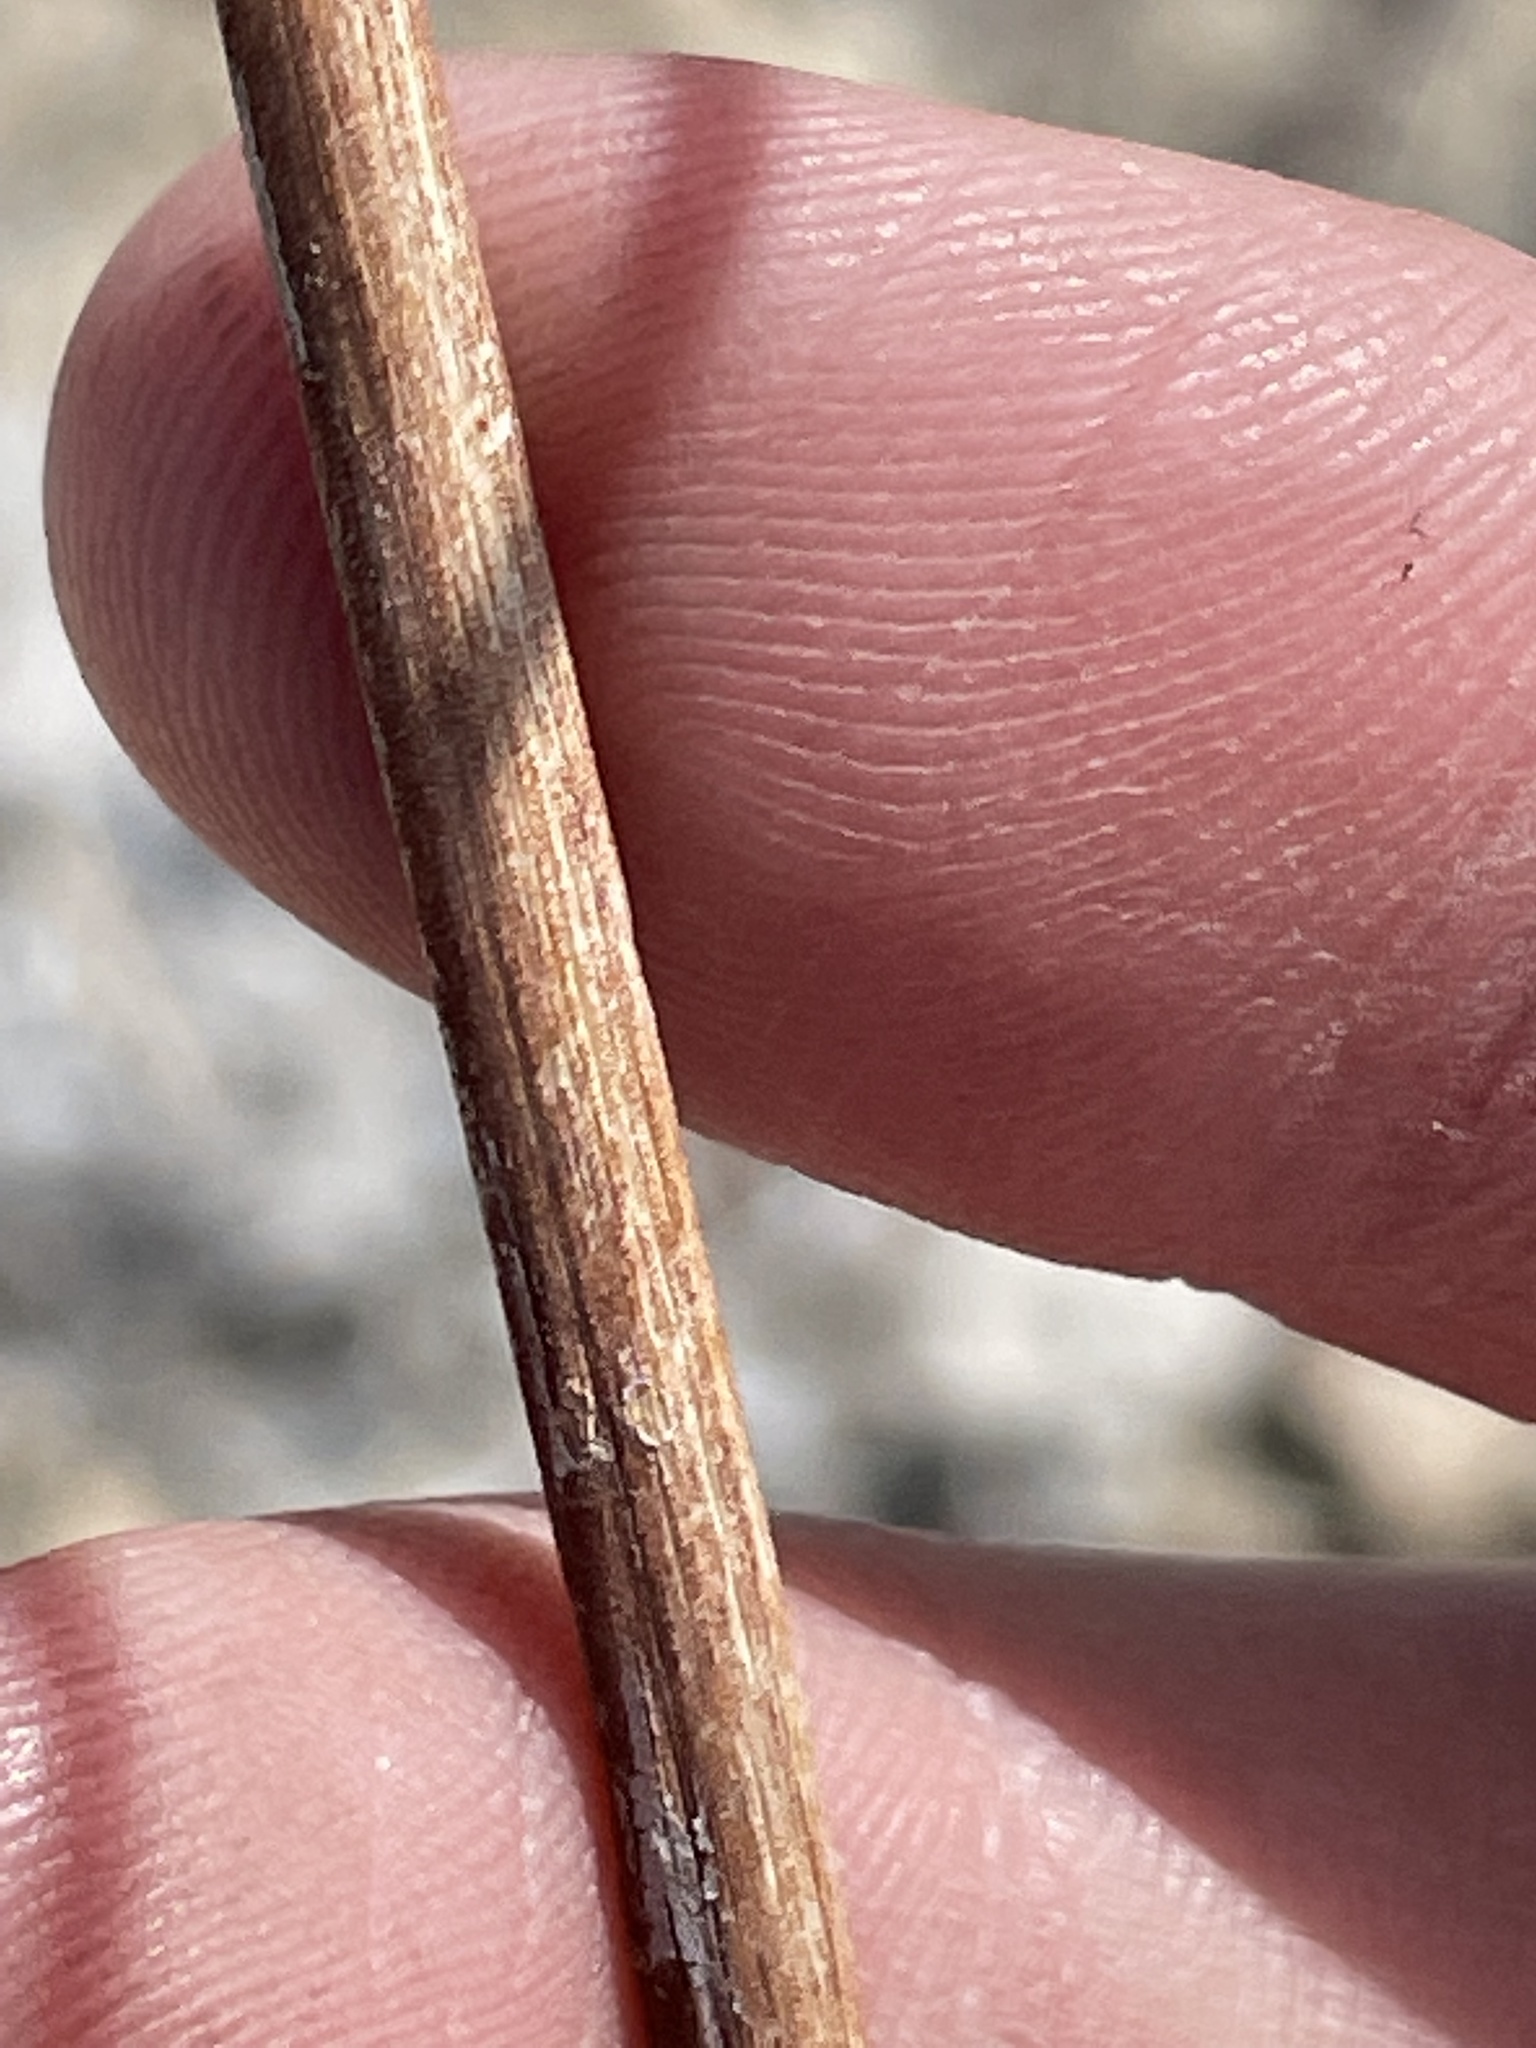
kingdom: Plantae
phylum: Tracheophyta
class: Magnoliopsida
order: Caryophyllales
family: Polygonaceae
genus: Eriogonum
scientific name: Eriogonum deflexum
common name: Skeleton-weed
